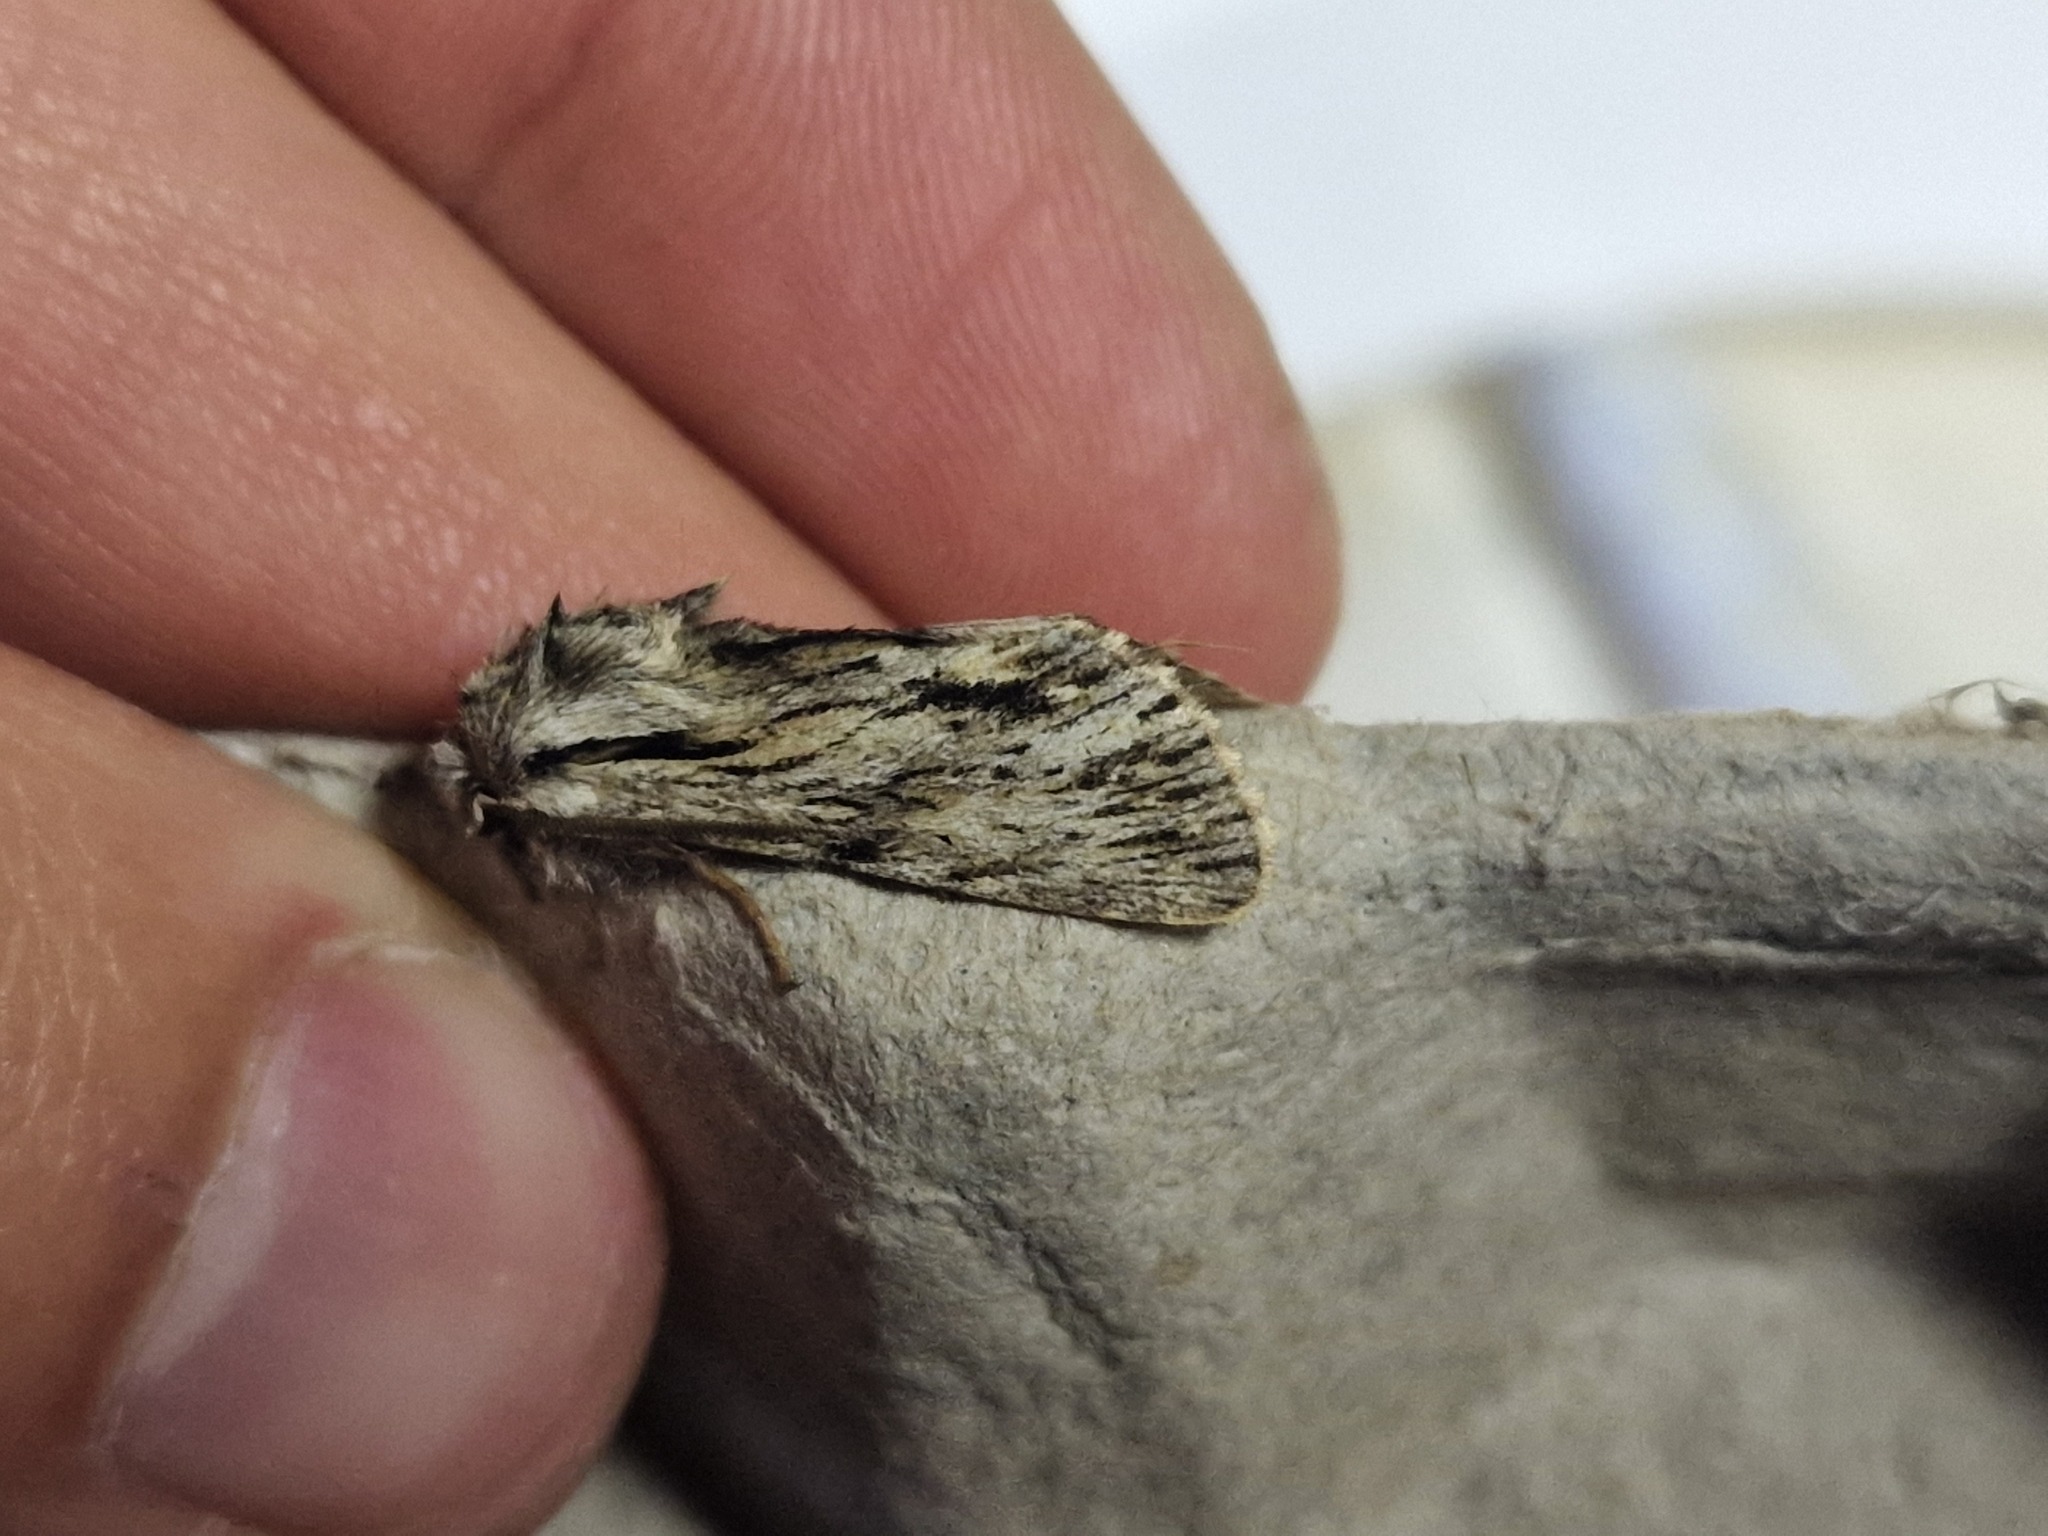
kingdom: Animalia
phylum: Arthropoda
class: Insecta
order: Lepidoptera
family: Noctuidae
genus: Asteroscopus
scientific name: Asteroscopus sphinx
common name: The sprawler
